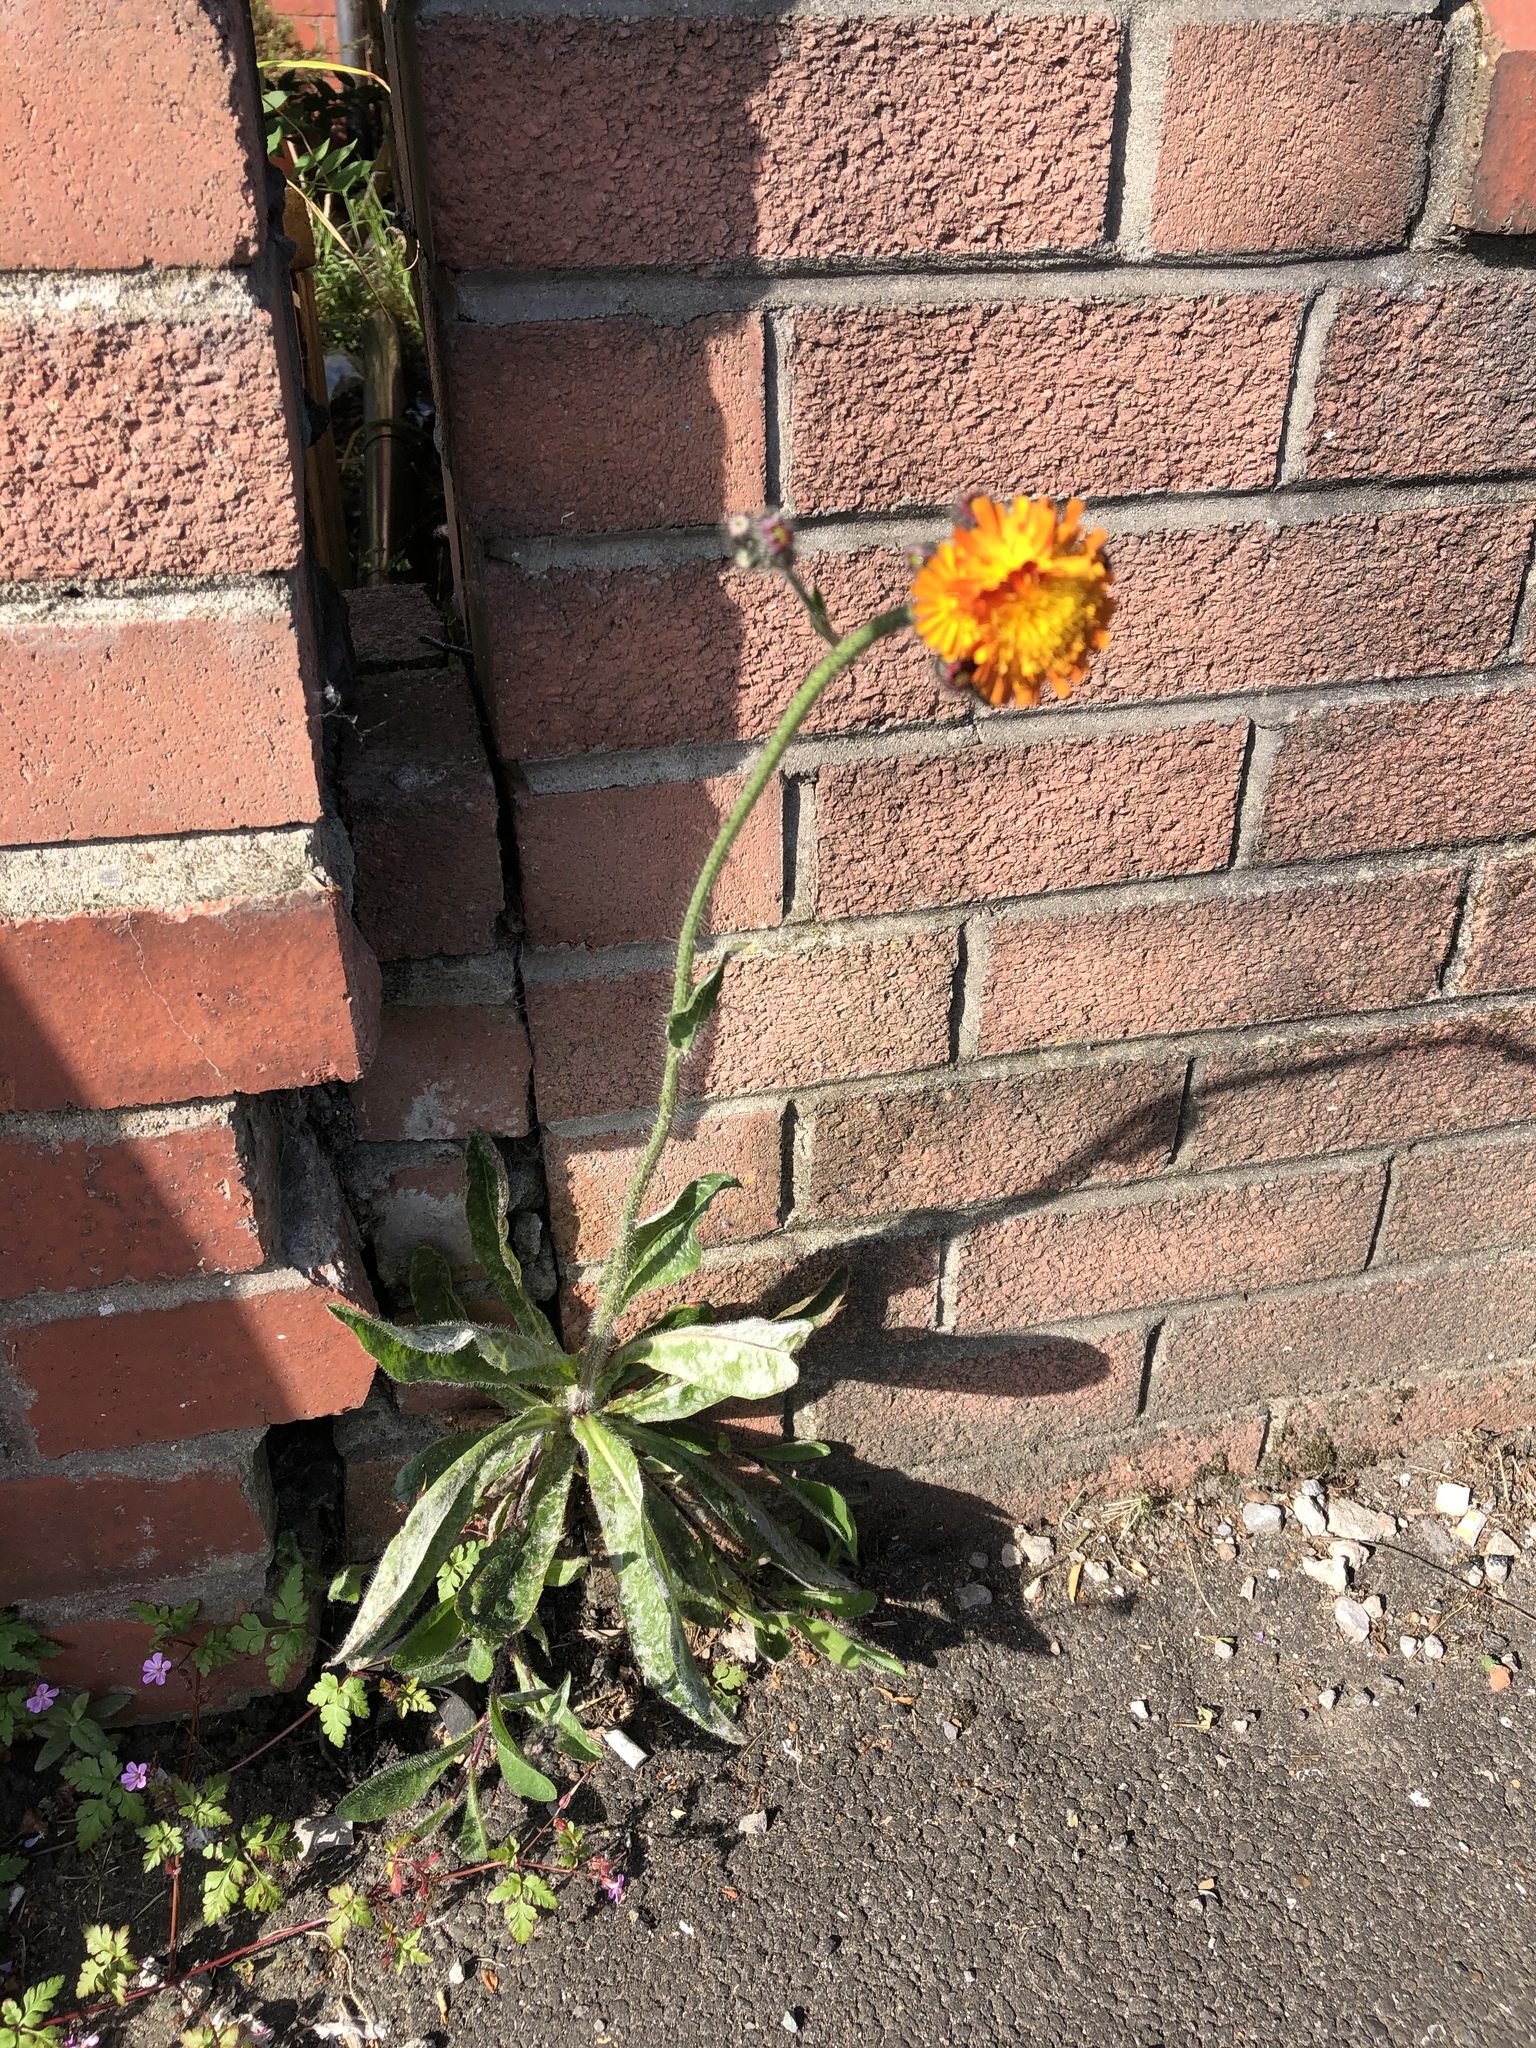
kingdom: Plantae
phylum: Tracheophyta
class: Magnoliopsida
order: Asterales
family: Asteraceae
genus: Pilosella
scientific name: Pilosella aurantiaca
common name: Fox-and-cubs
